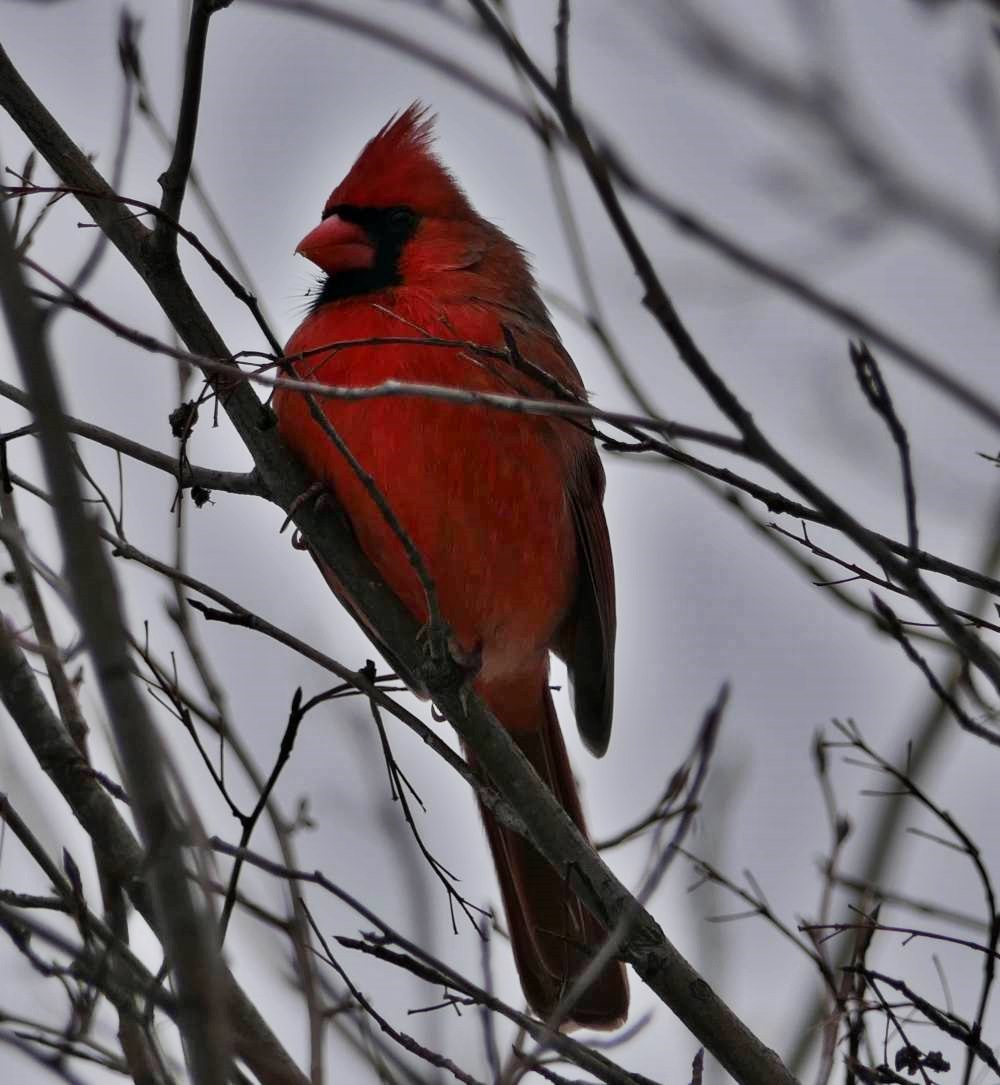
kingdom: Animalia
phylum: Chordata
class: Aves
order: Passeriformes
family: Cardinalidae
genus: Cardinalis
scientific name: Cardinalis cardinalis
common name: Northern cardinal
